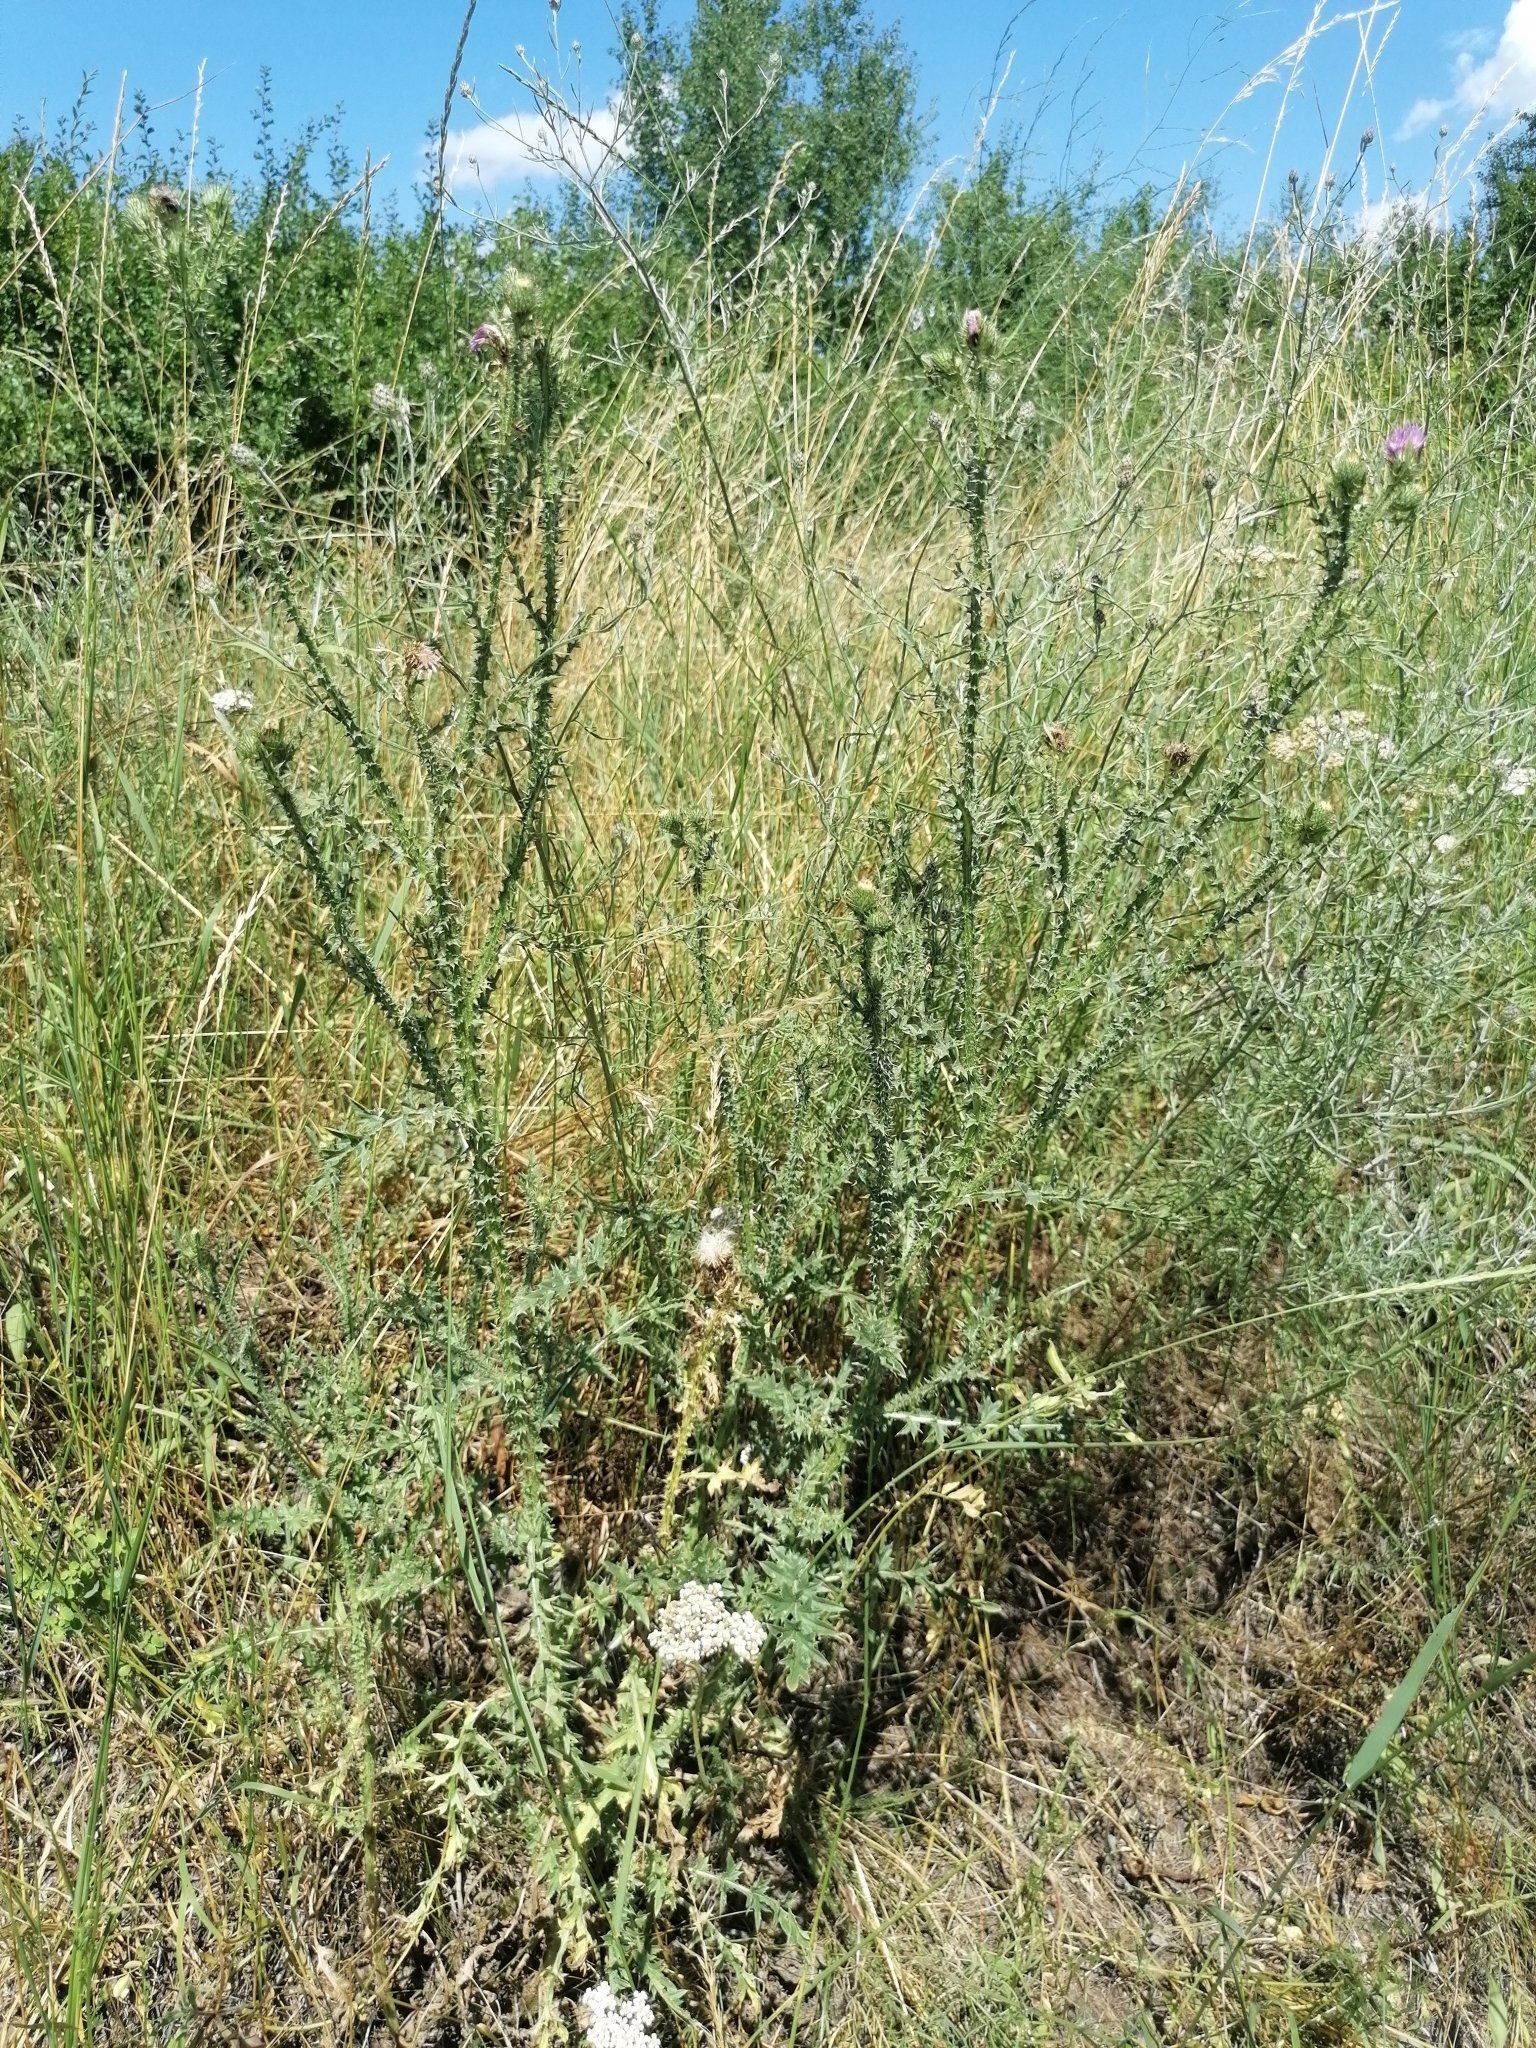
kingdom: Plantae
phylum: Tracheophyta
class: Magnoliopsida
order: Asterales
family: Asteraceae
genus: Carduus
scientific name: Carduus acanthoides
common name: Plumeless thistle
